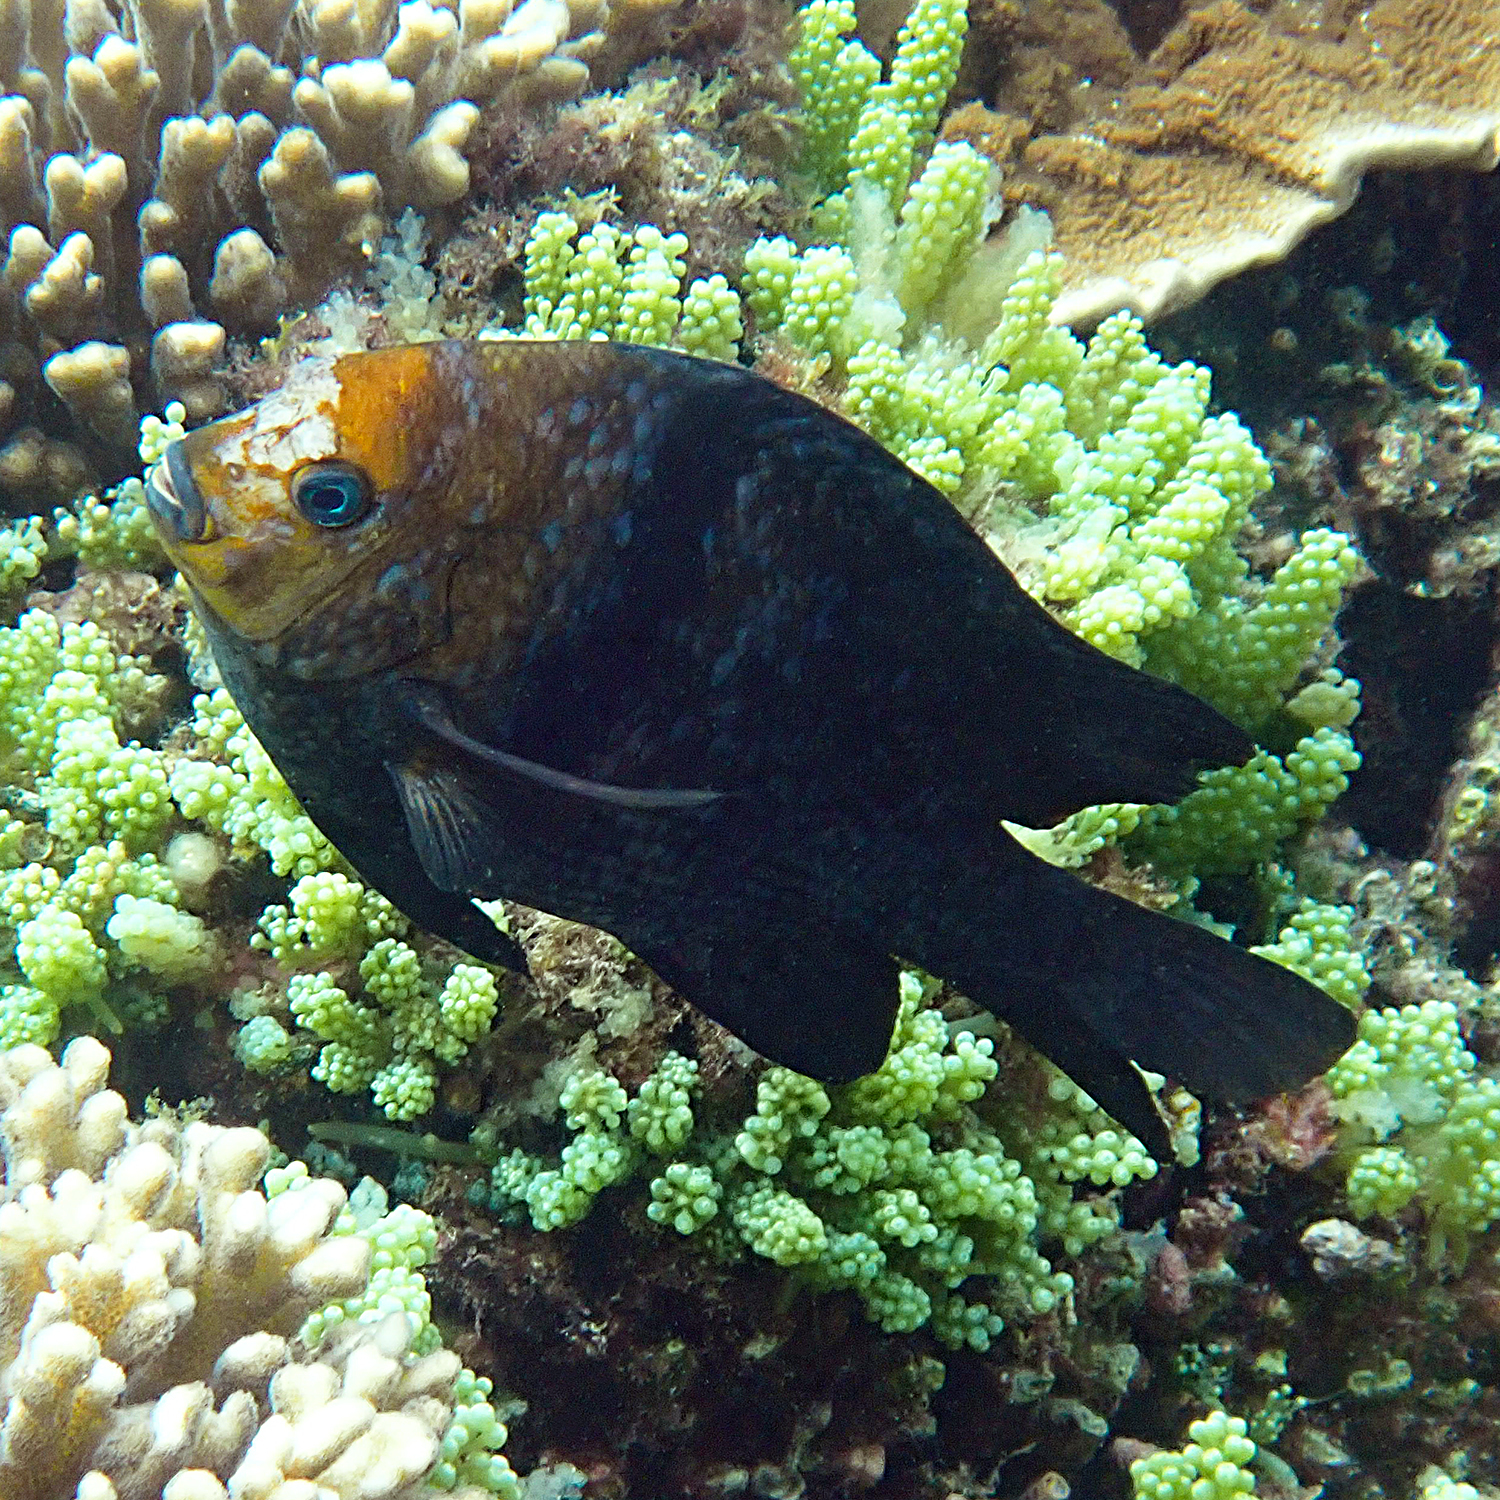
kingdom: Animalia
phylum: Chordata
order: Perciformes
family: Pomacentridae
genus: Parma
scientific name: Parma polylepis
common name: Banded parma
